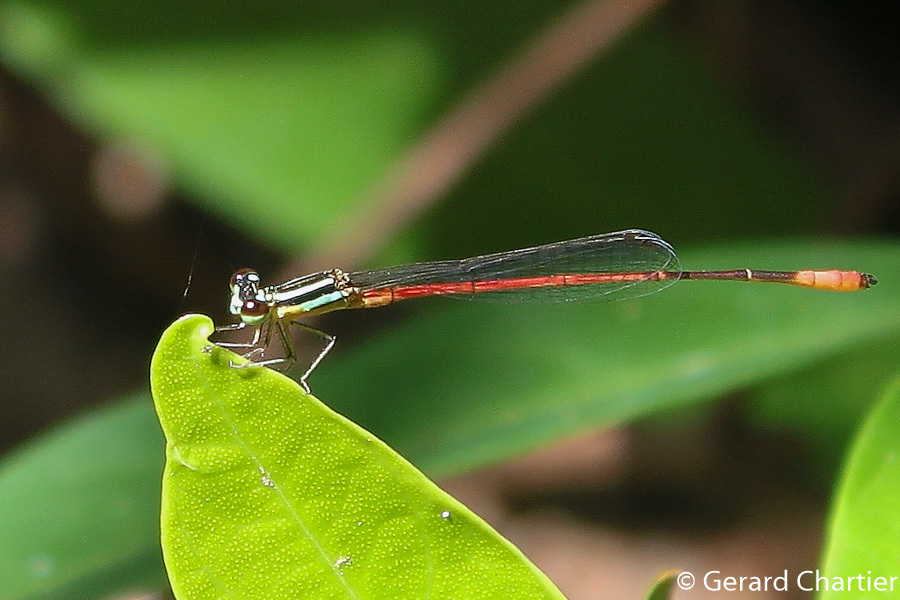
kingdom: Animalia
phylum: Arthropoda
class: Insecta
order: Odonata
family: Coenagrionidae
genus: Argiocnemis
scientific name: Argiocnemis rubescens
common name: Red-tipped shadefly
